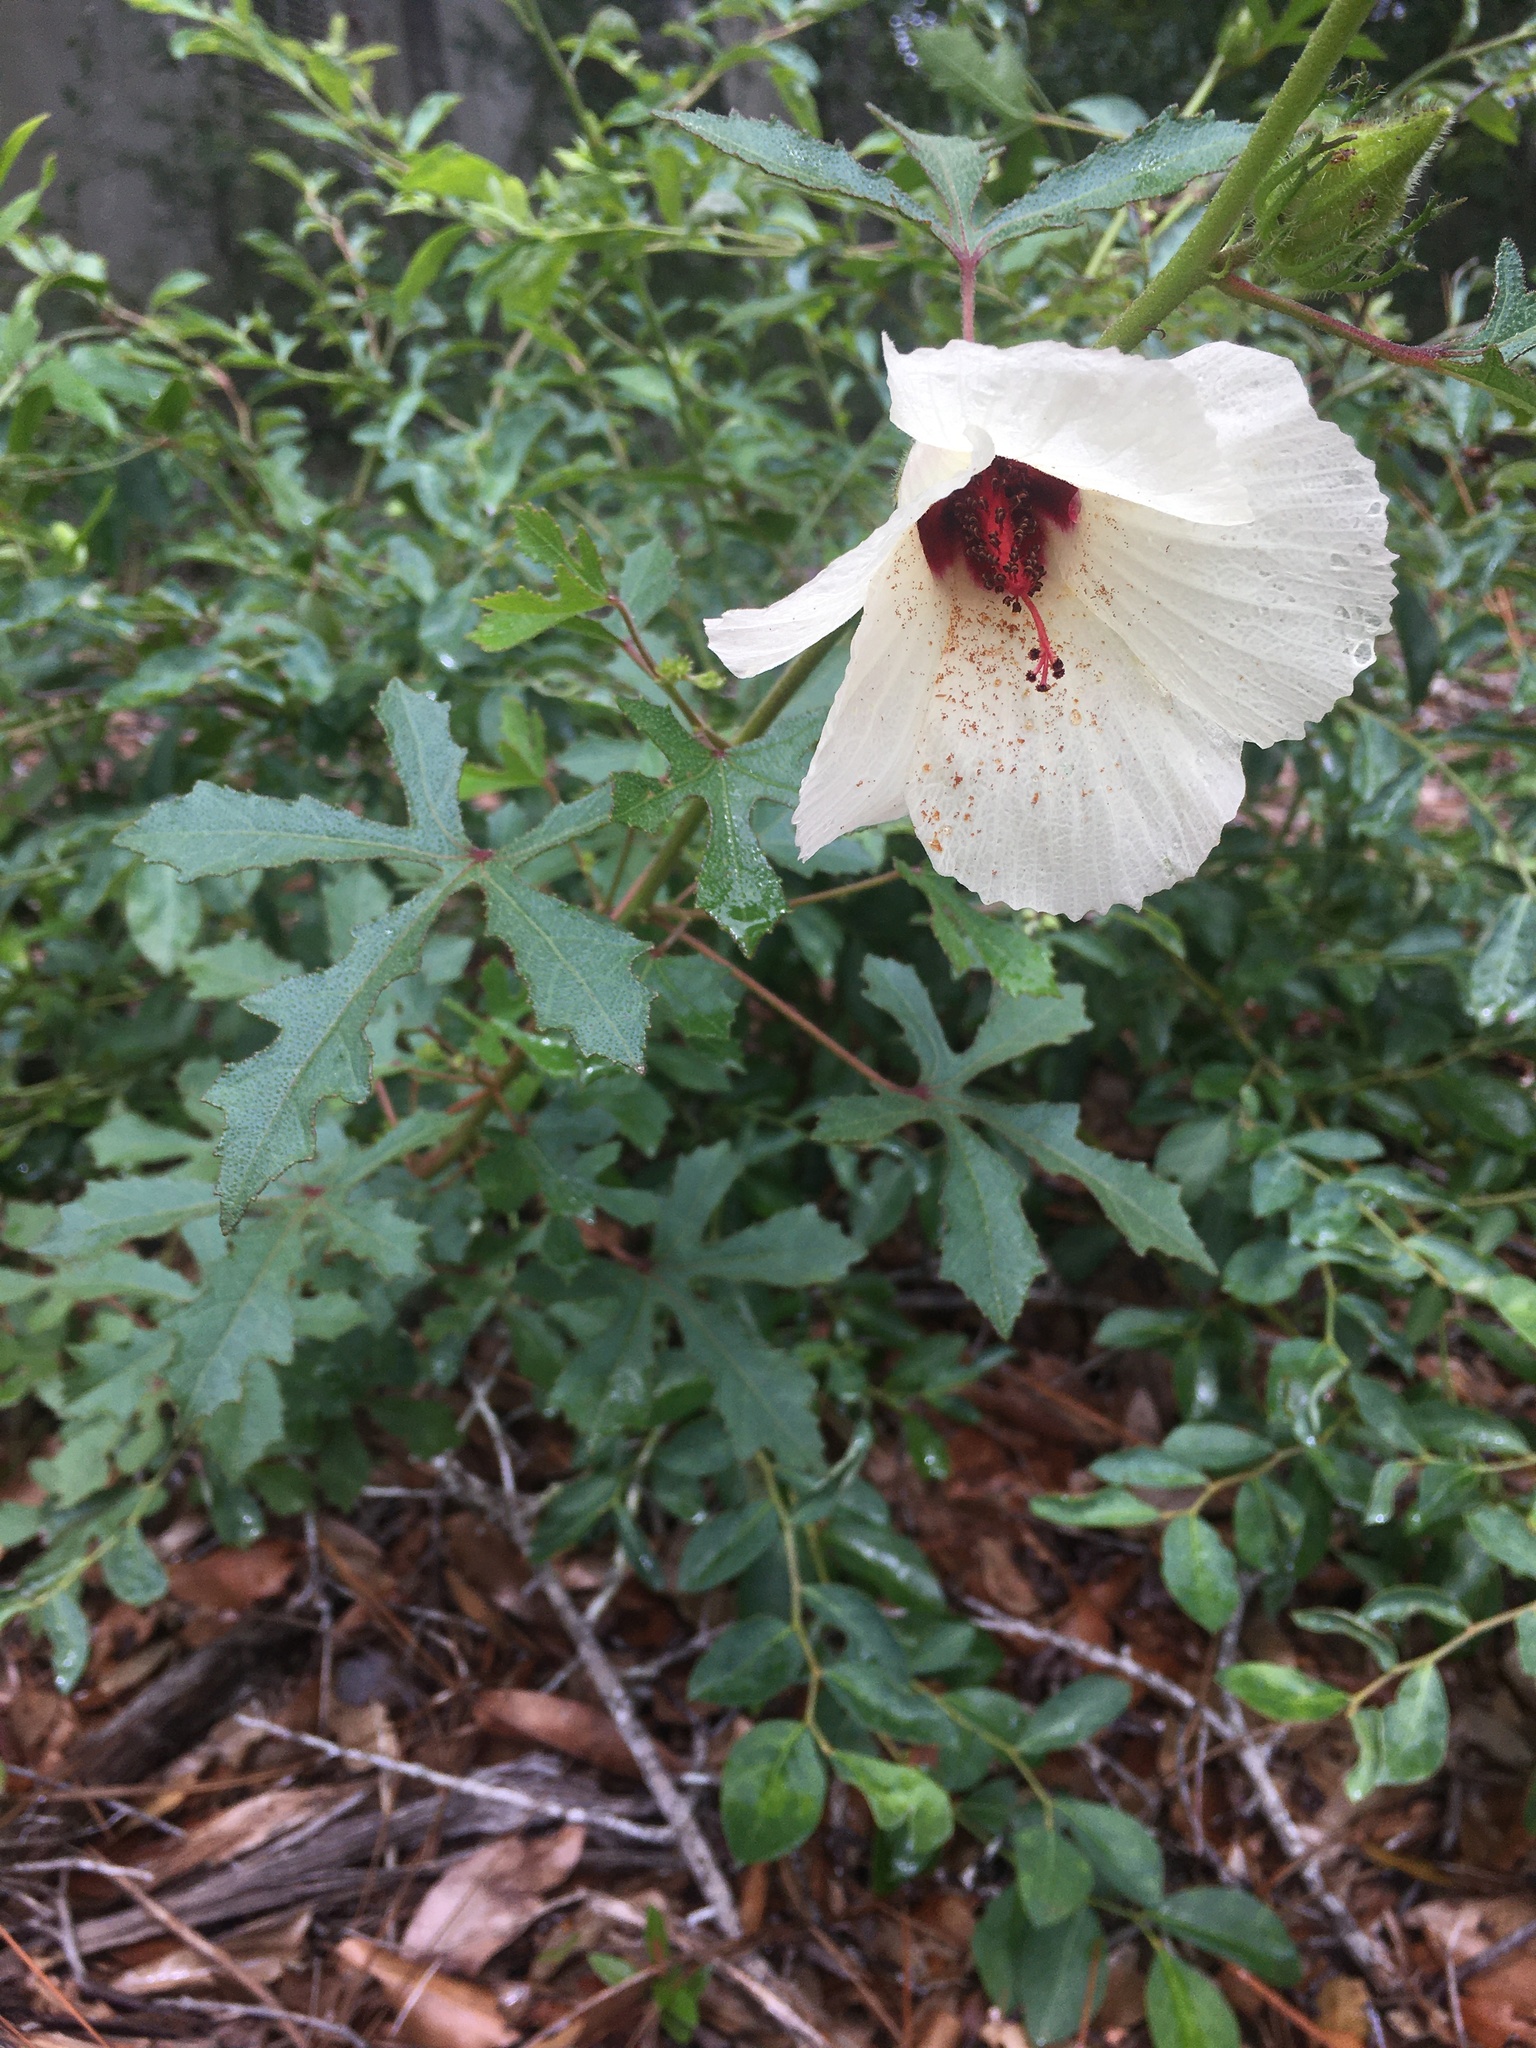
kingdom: Plantae
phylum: Tracheophyta
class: Magnoliopsida
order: Malvales
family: Malvaceae
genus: Hibiscus
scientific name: Hibiscus aculeatus
